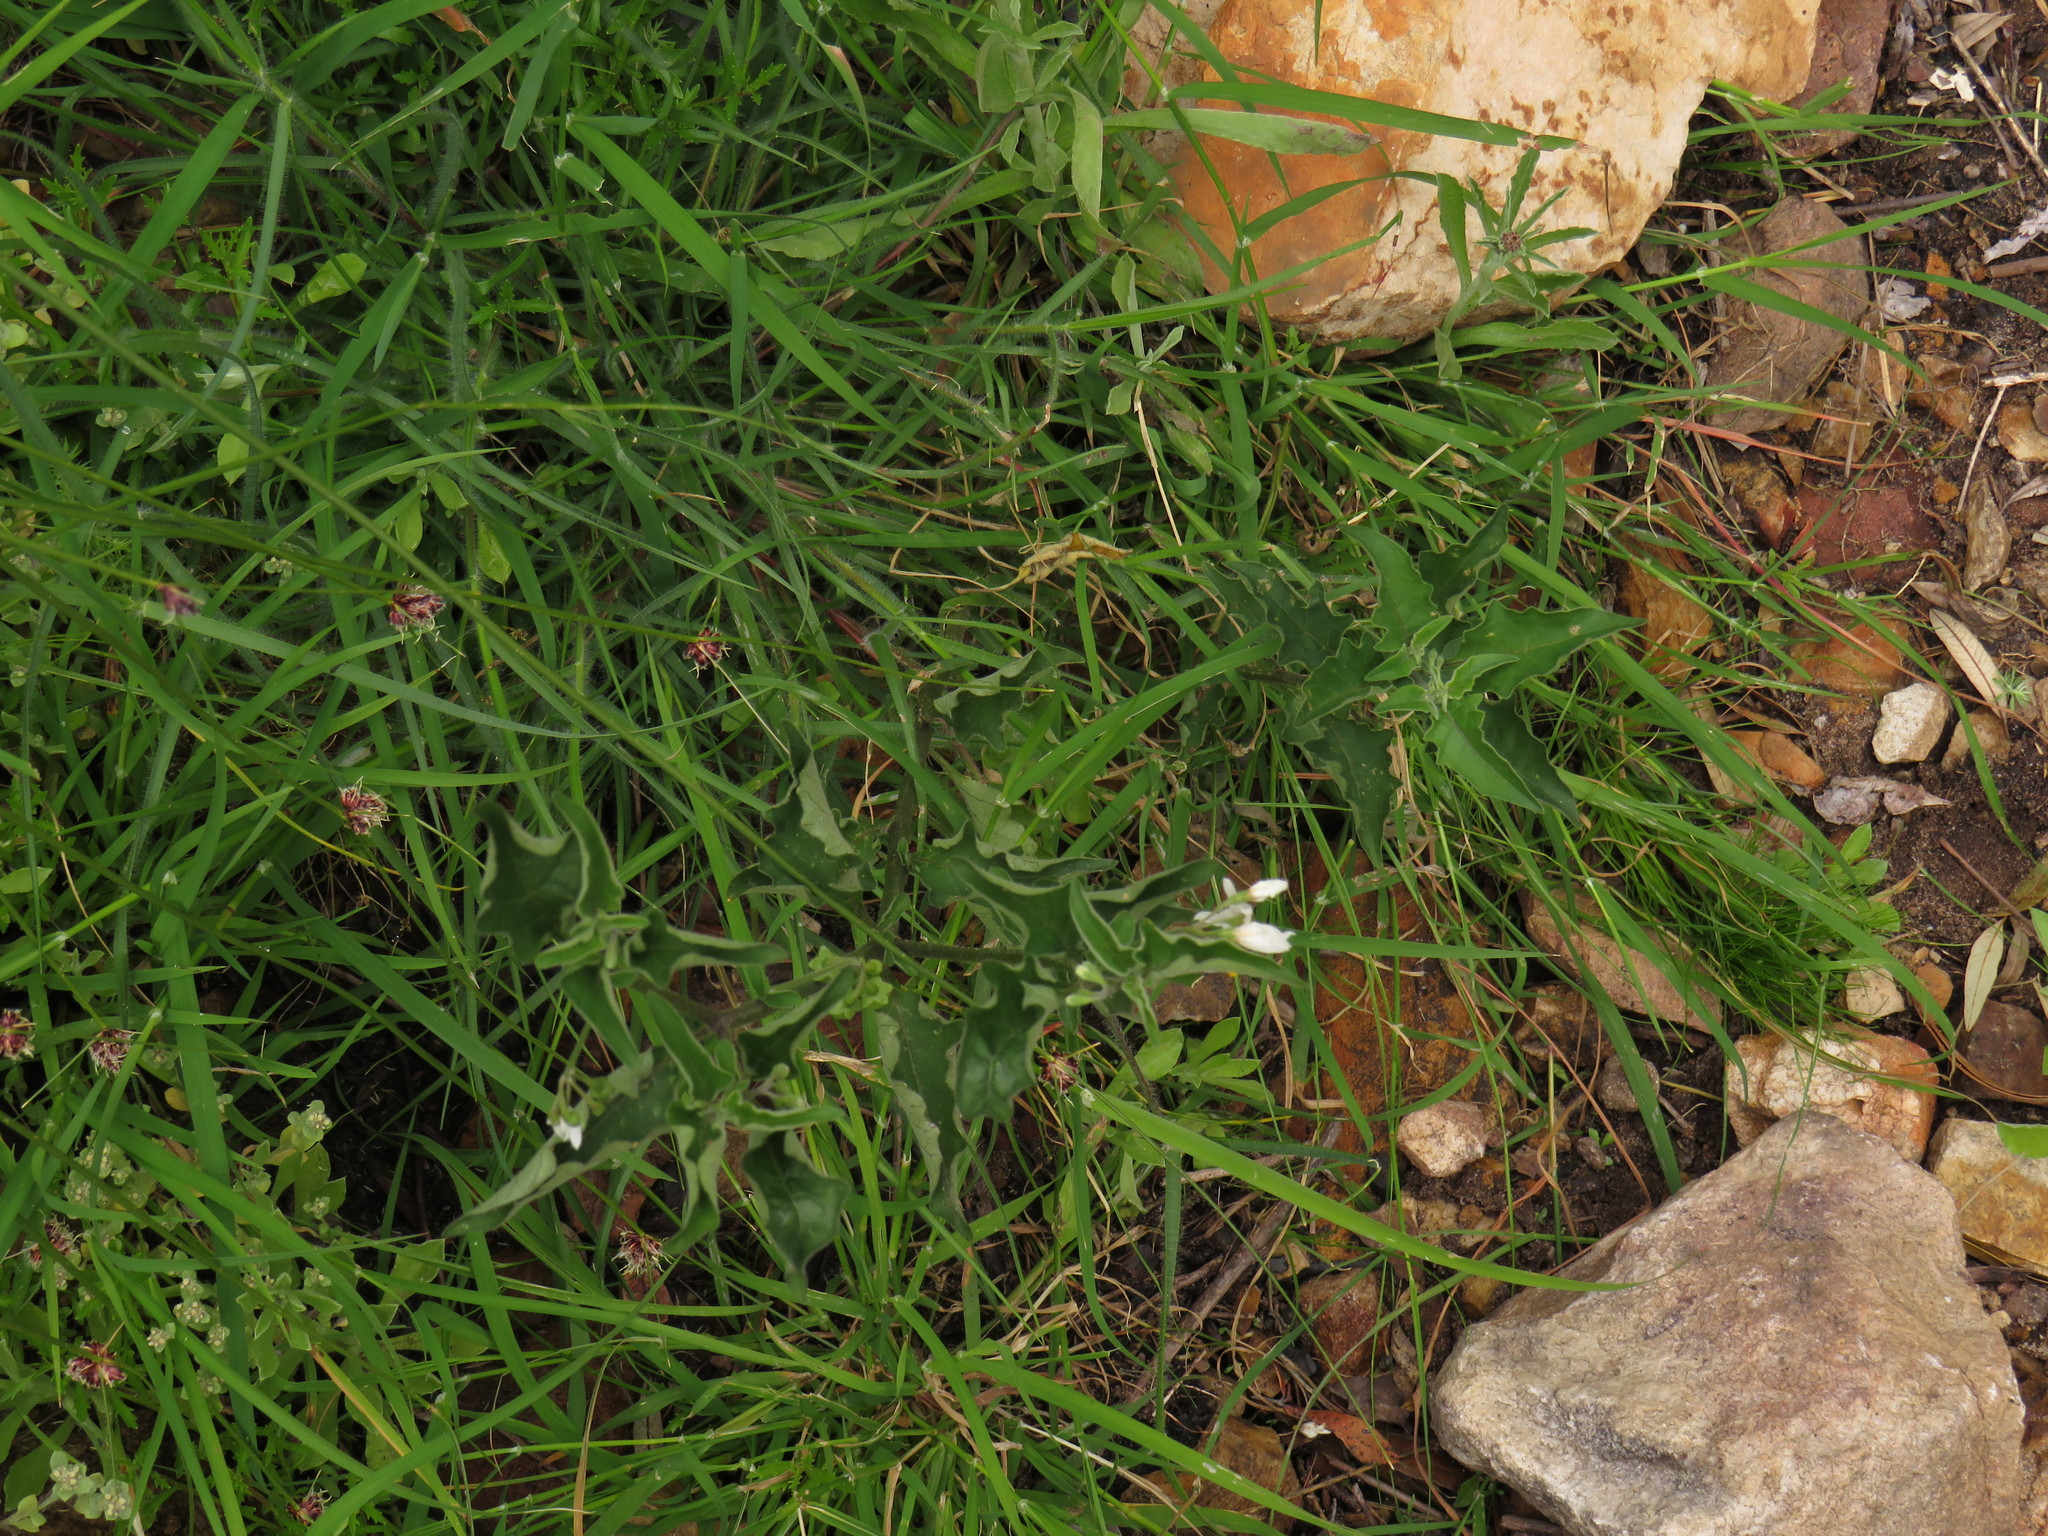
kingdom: Plantae
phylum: Tracheophyta
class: Magnoliopsida
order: Solanales
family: Solanaceae
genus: Solanum
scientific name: Solanum chenopodioides
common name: Tall nightshade
